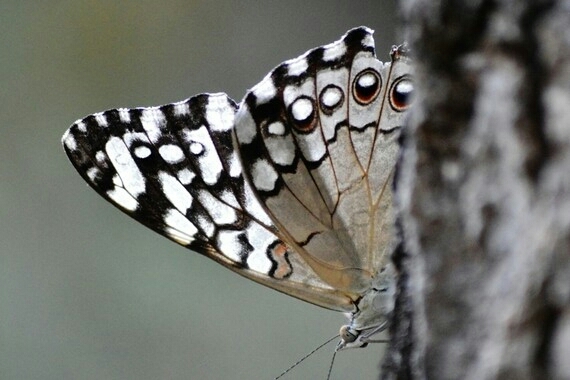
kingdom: Animalia
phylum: Arthropoda
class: Insecta
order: Lepidoptera
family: Nymphalidae
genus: Hamadryas
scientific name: Hamadryas feronia
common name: Variable cracker
